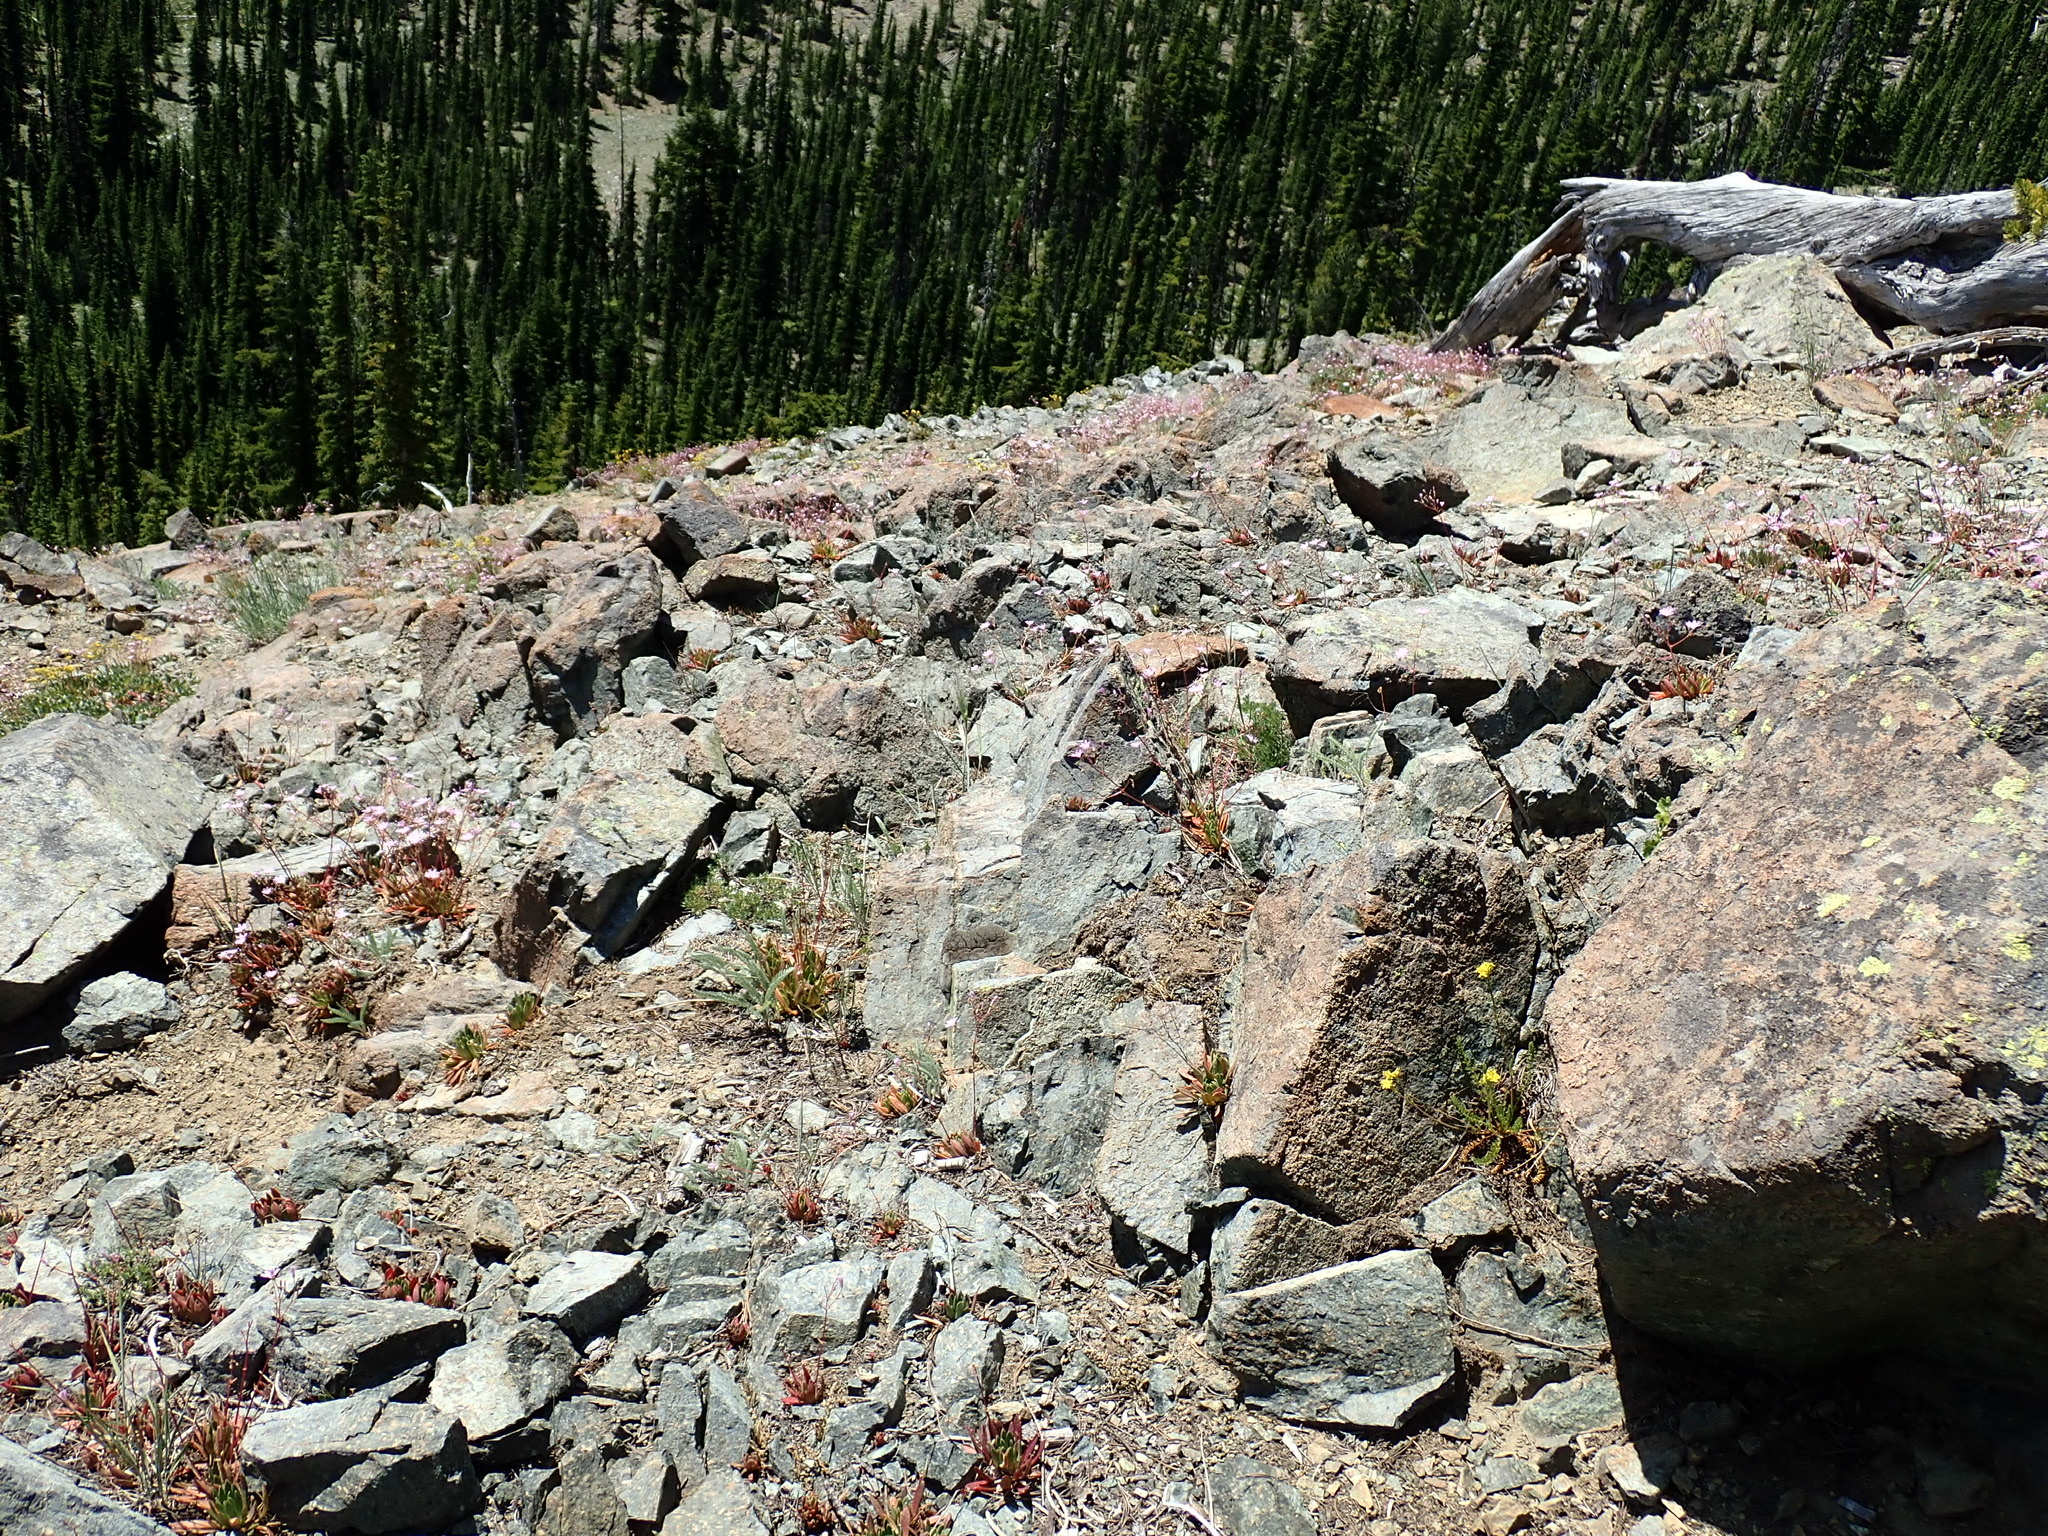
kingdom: Plantae
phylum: Tracheophyta
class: Magnoliopsida
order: Caryophyllales
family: Montiaceae
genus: Lewisia
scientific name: Lewisia columbiana
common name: Columbia lewisia
